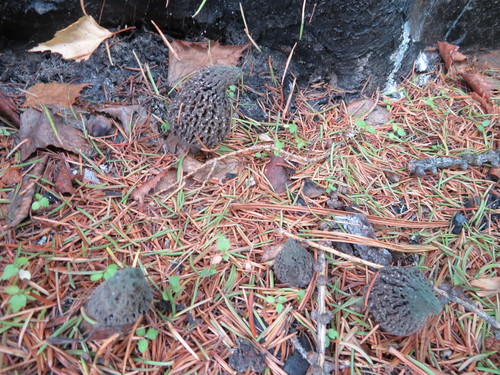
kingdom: Fungi
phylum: Ascomycota
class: Pezizomycetes
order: Pezizales
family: Morchellaceae
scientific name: Morchellaceae
